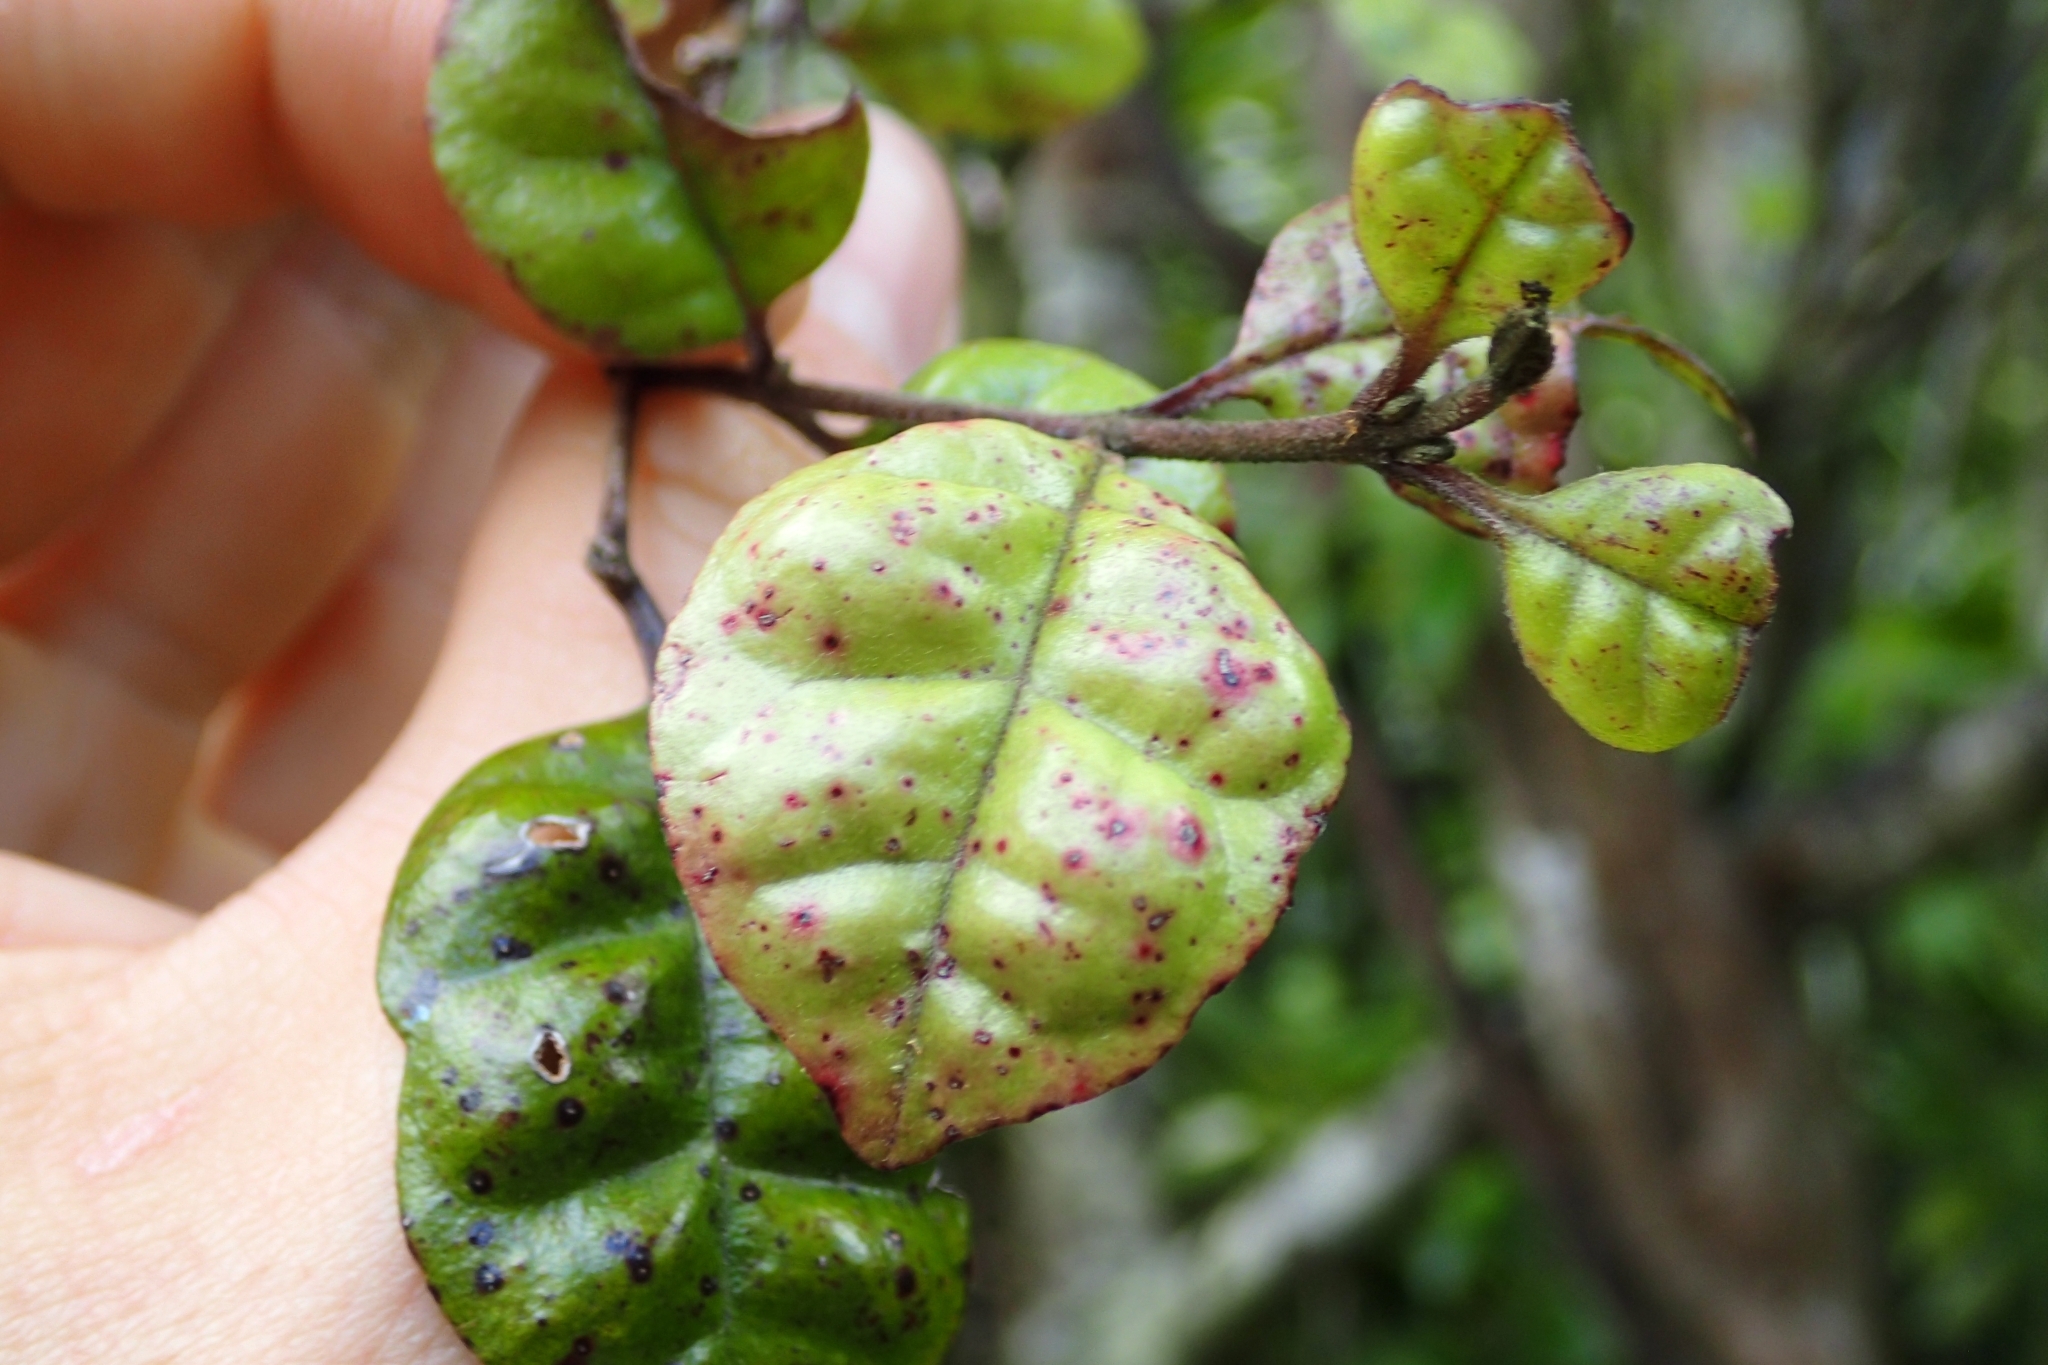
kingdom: Plantae
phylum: Tracheophyta
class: Magnoliopsida
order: Myrtales
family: Myrtaceae
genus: Lophomyrtus
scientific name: Lophomyrtus bullata
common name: Rama rama
